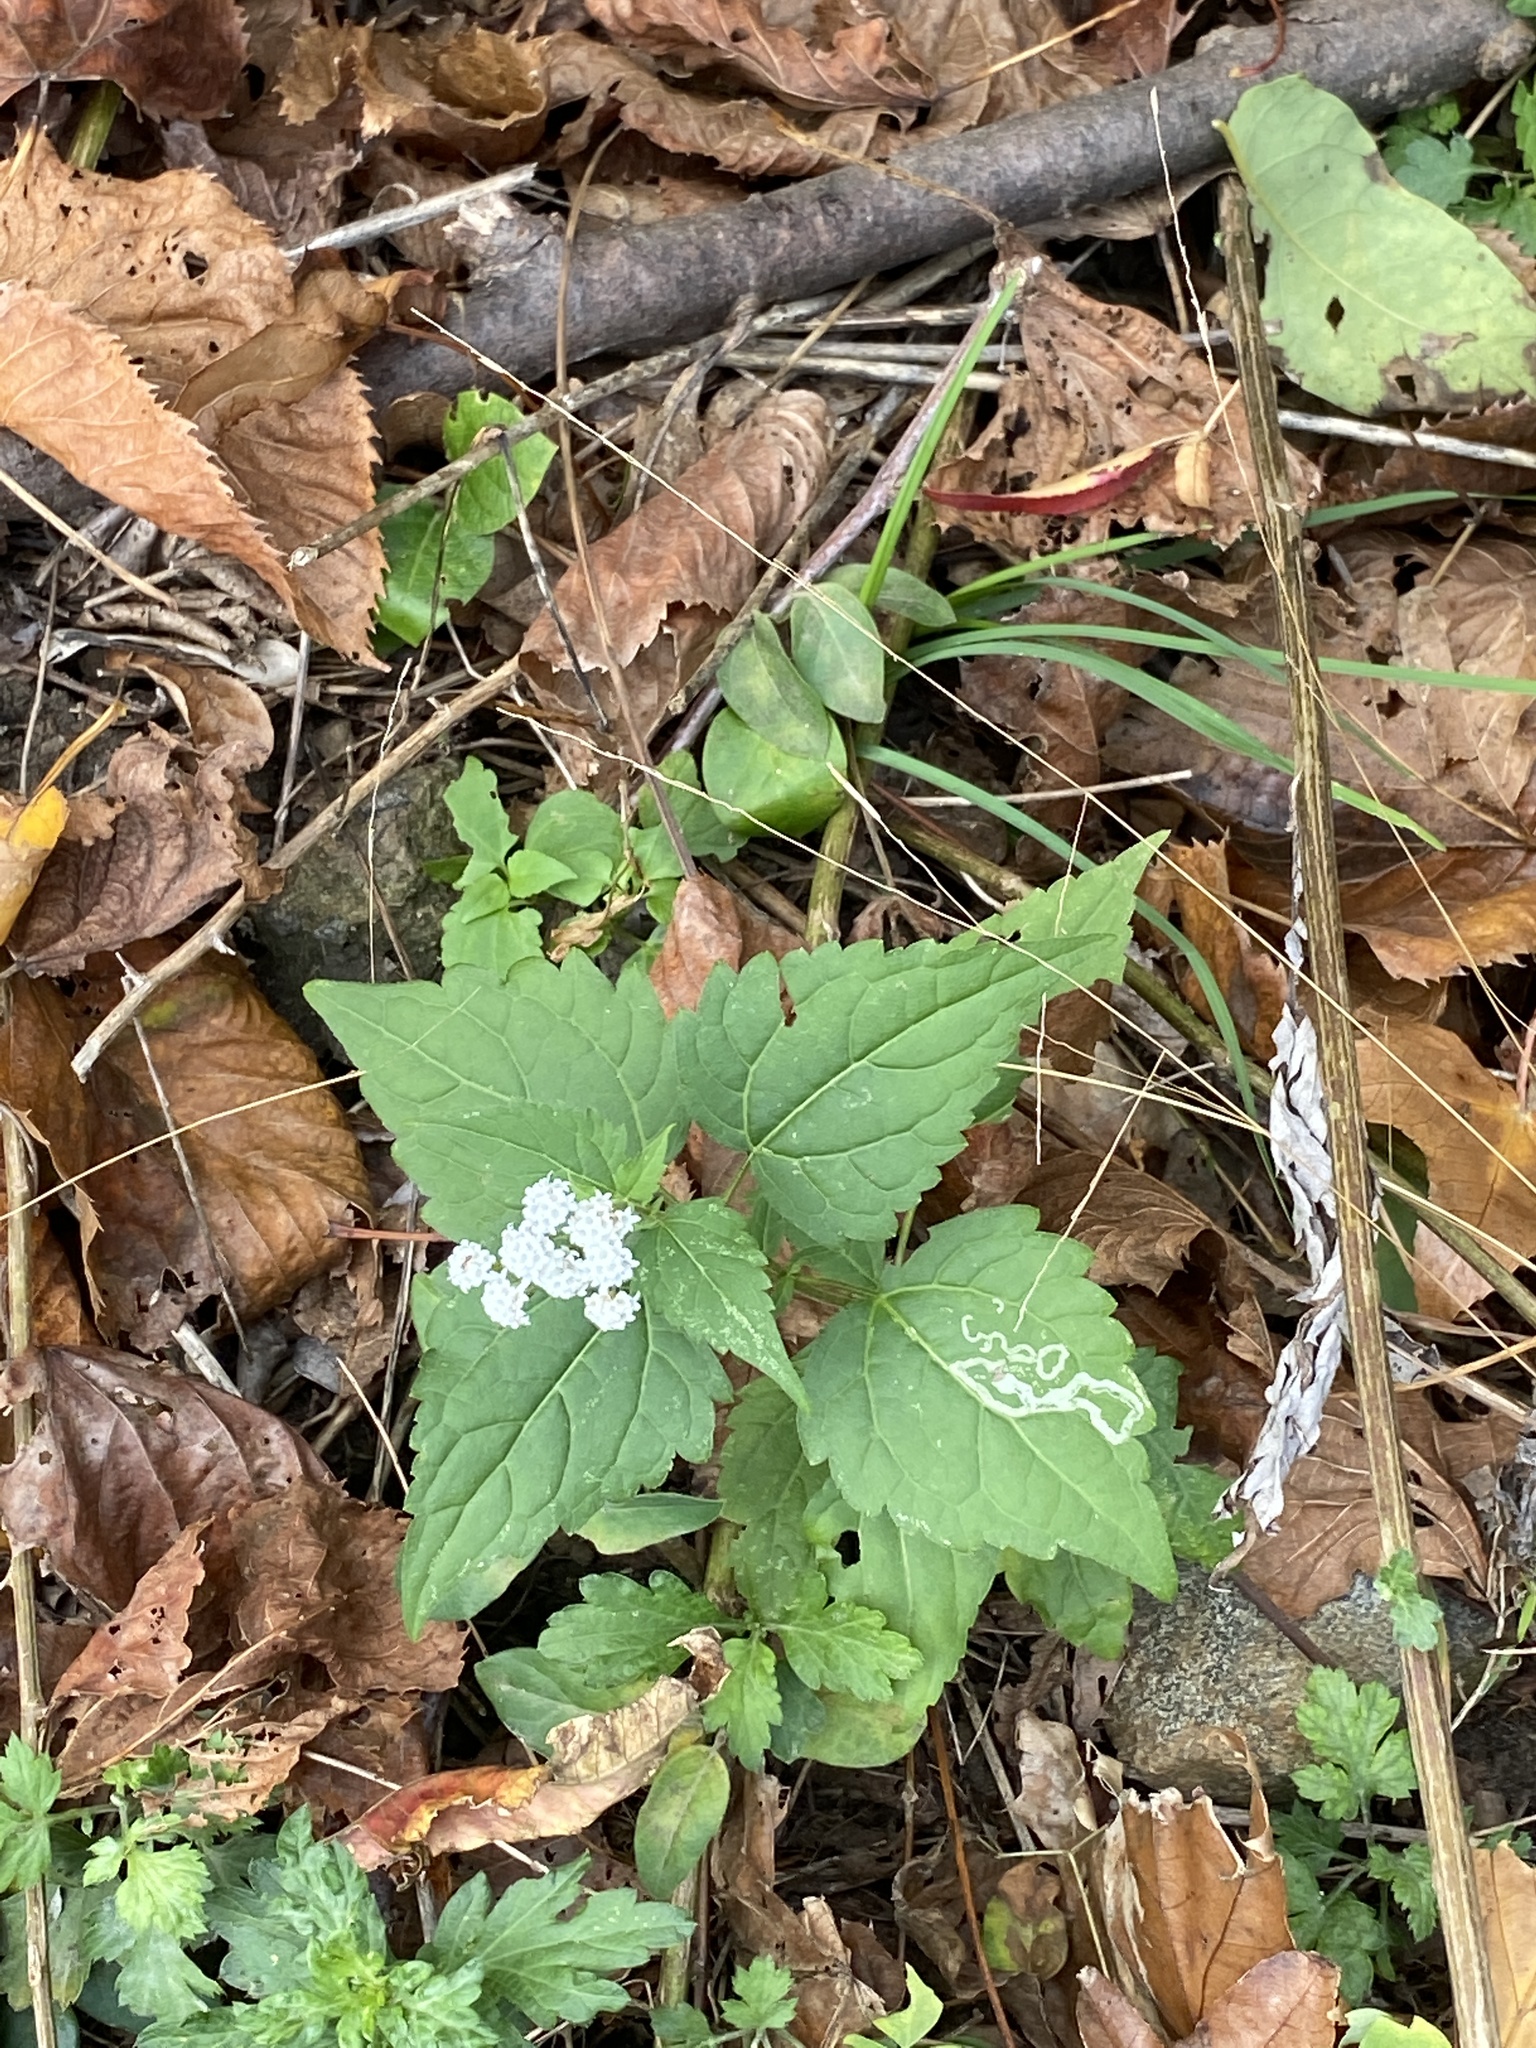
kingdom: Plantae
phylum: Tracheophyta
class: Magnoliopsida
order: Asterales
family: Asteraceae
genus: Ageratina
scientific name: Ageratina altissima
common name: White snakeroot
